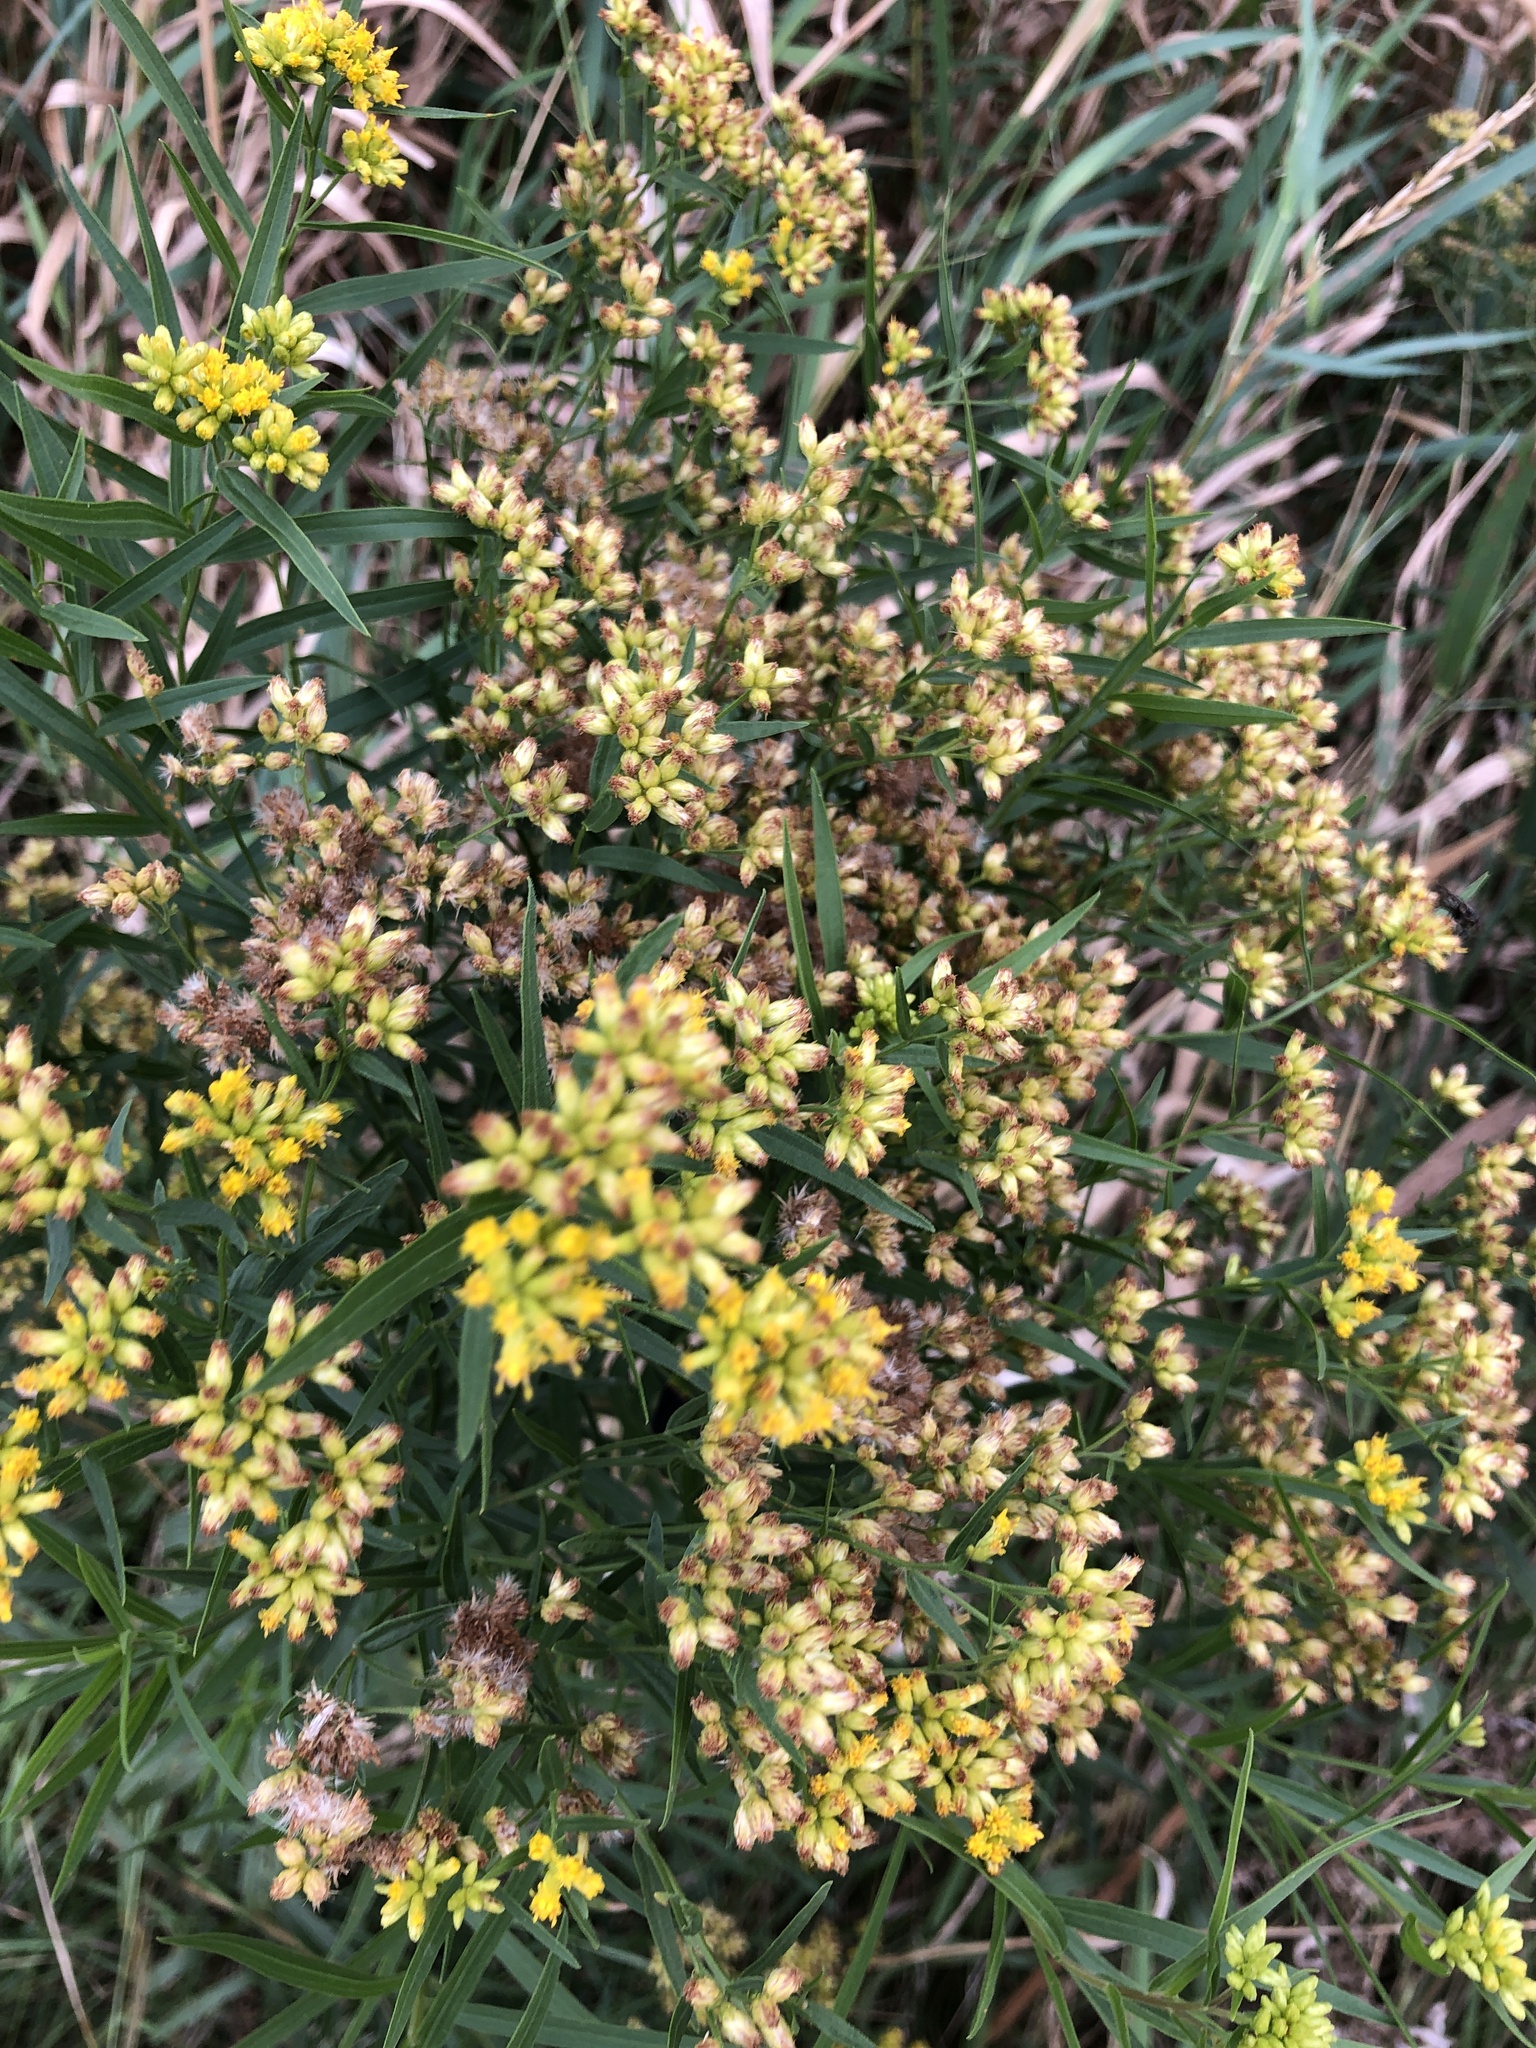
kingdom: Plantae
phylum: Tracheophyta
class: Magnoliopsida
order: Asterales
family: Asteraceae
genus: Euthamia
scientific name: Euthamia graminifolia
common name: Common goldentop
